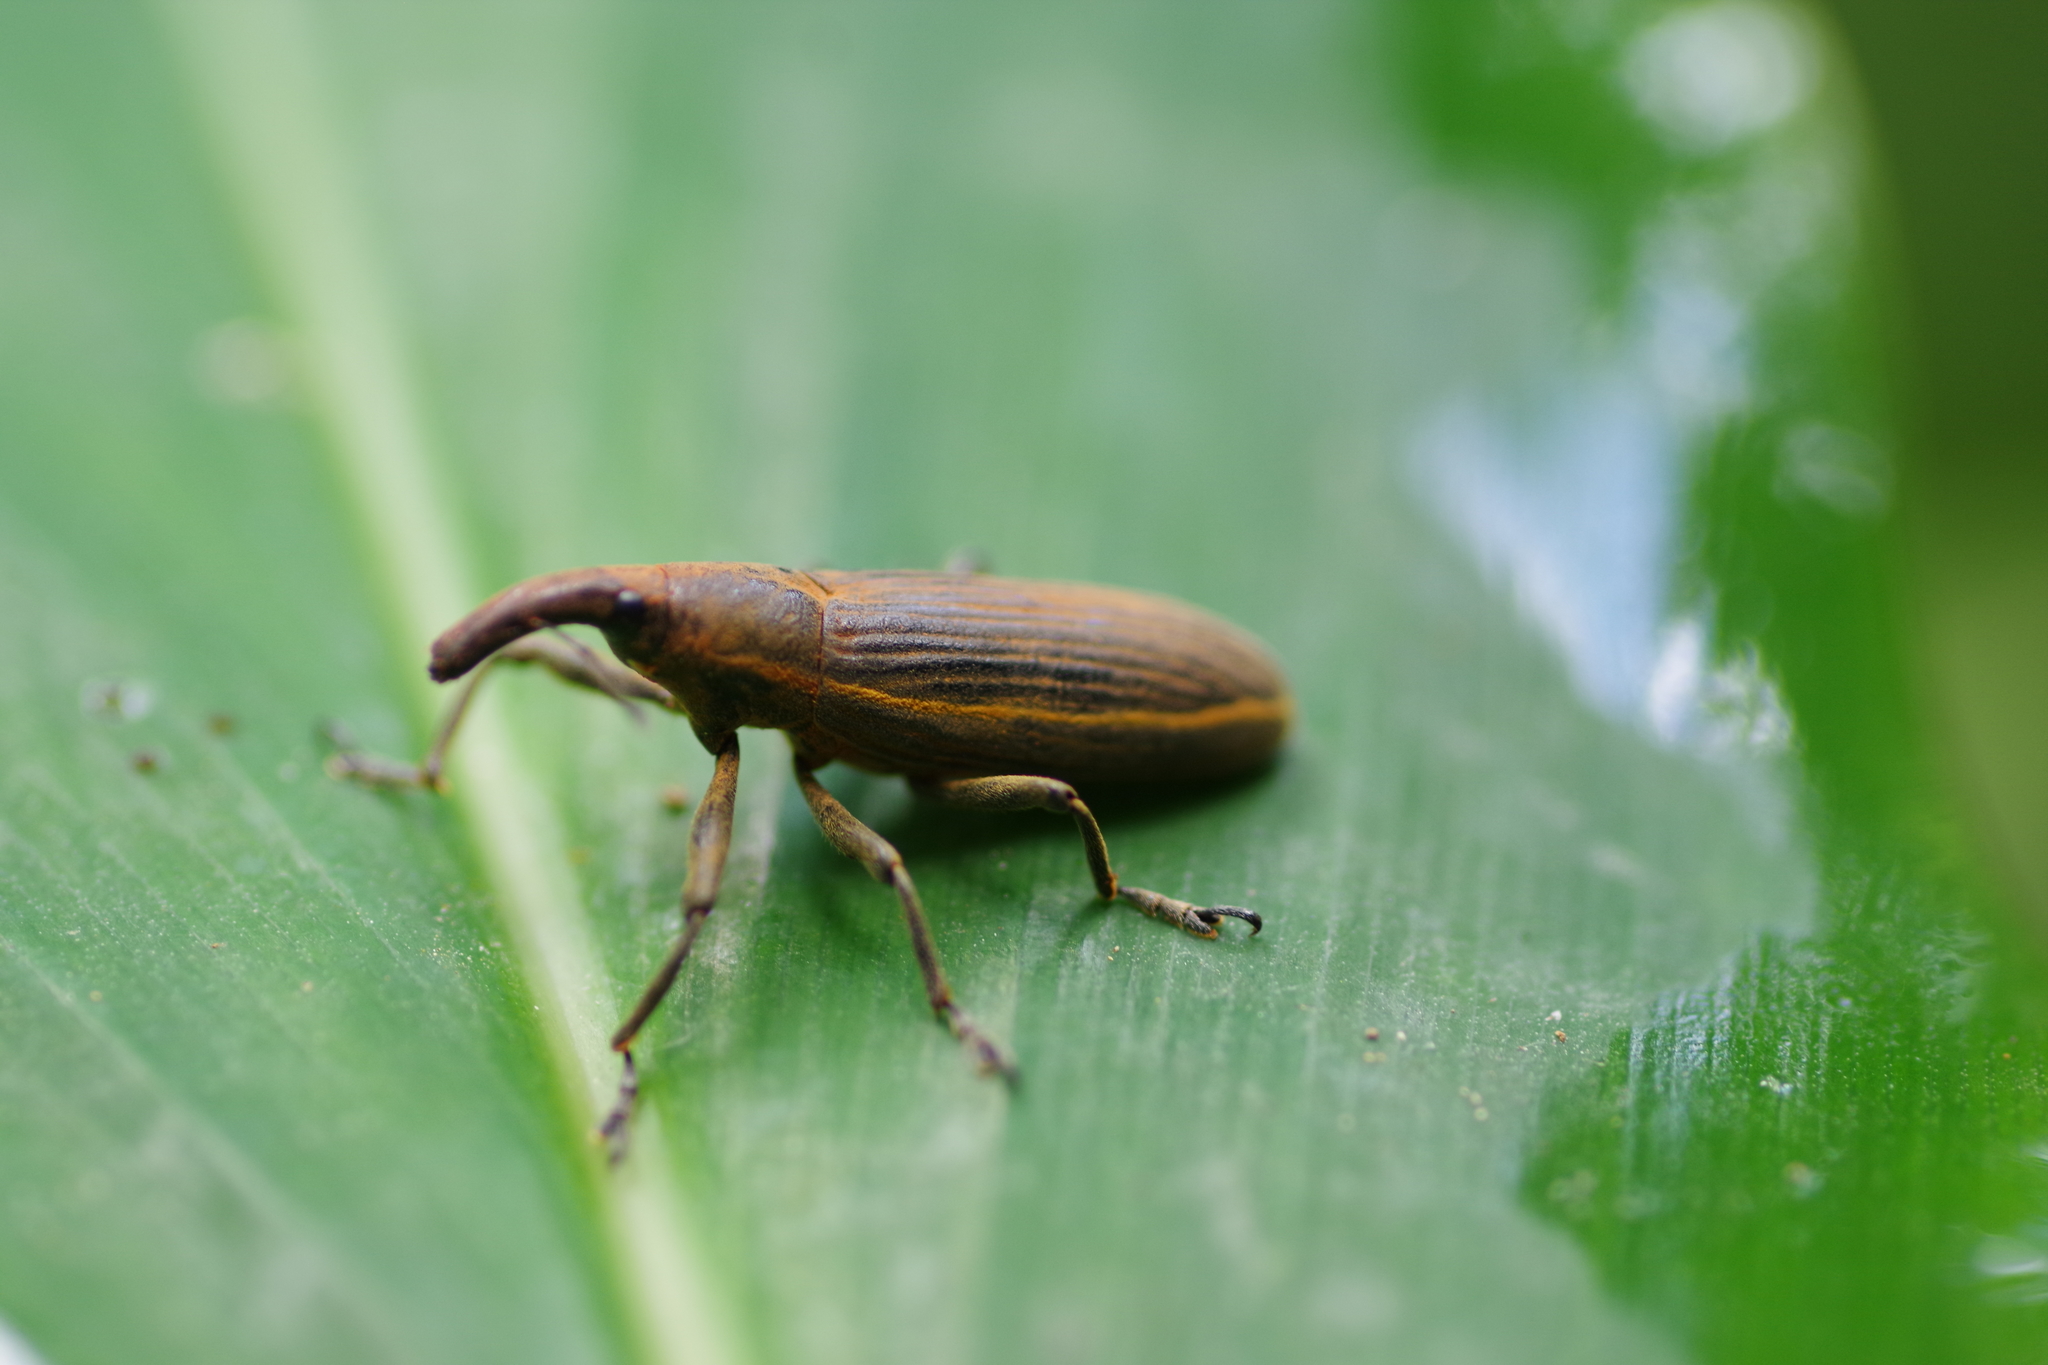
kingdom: Animalia
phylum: Arthropoda
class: Insecta
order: Coleoptera
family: Curculionidae
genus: Lixus
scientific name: Lixus concavus
